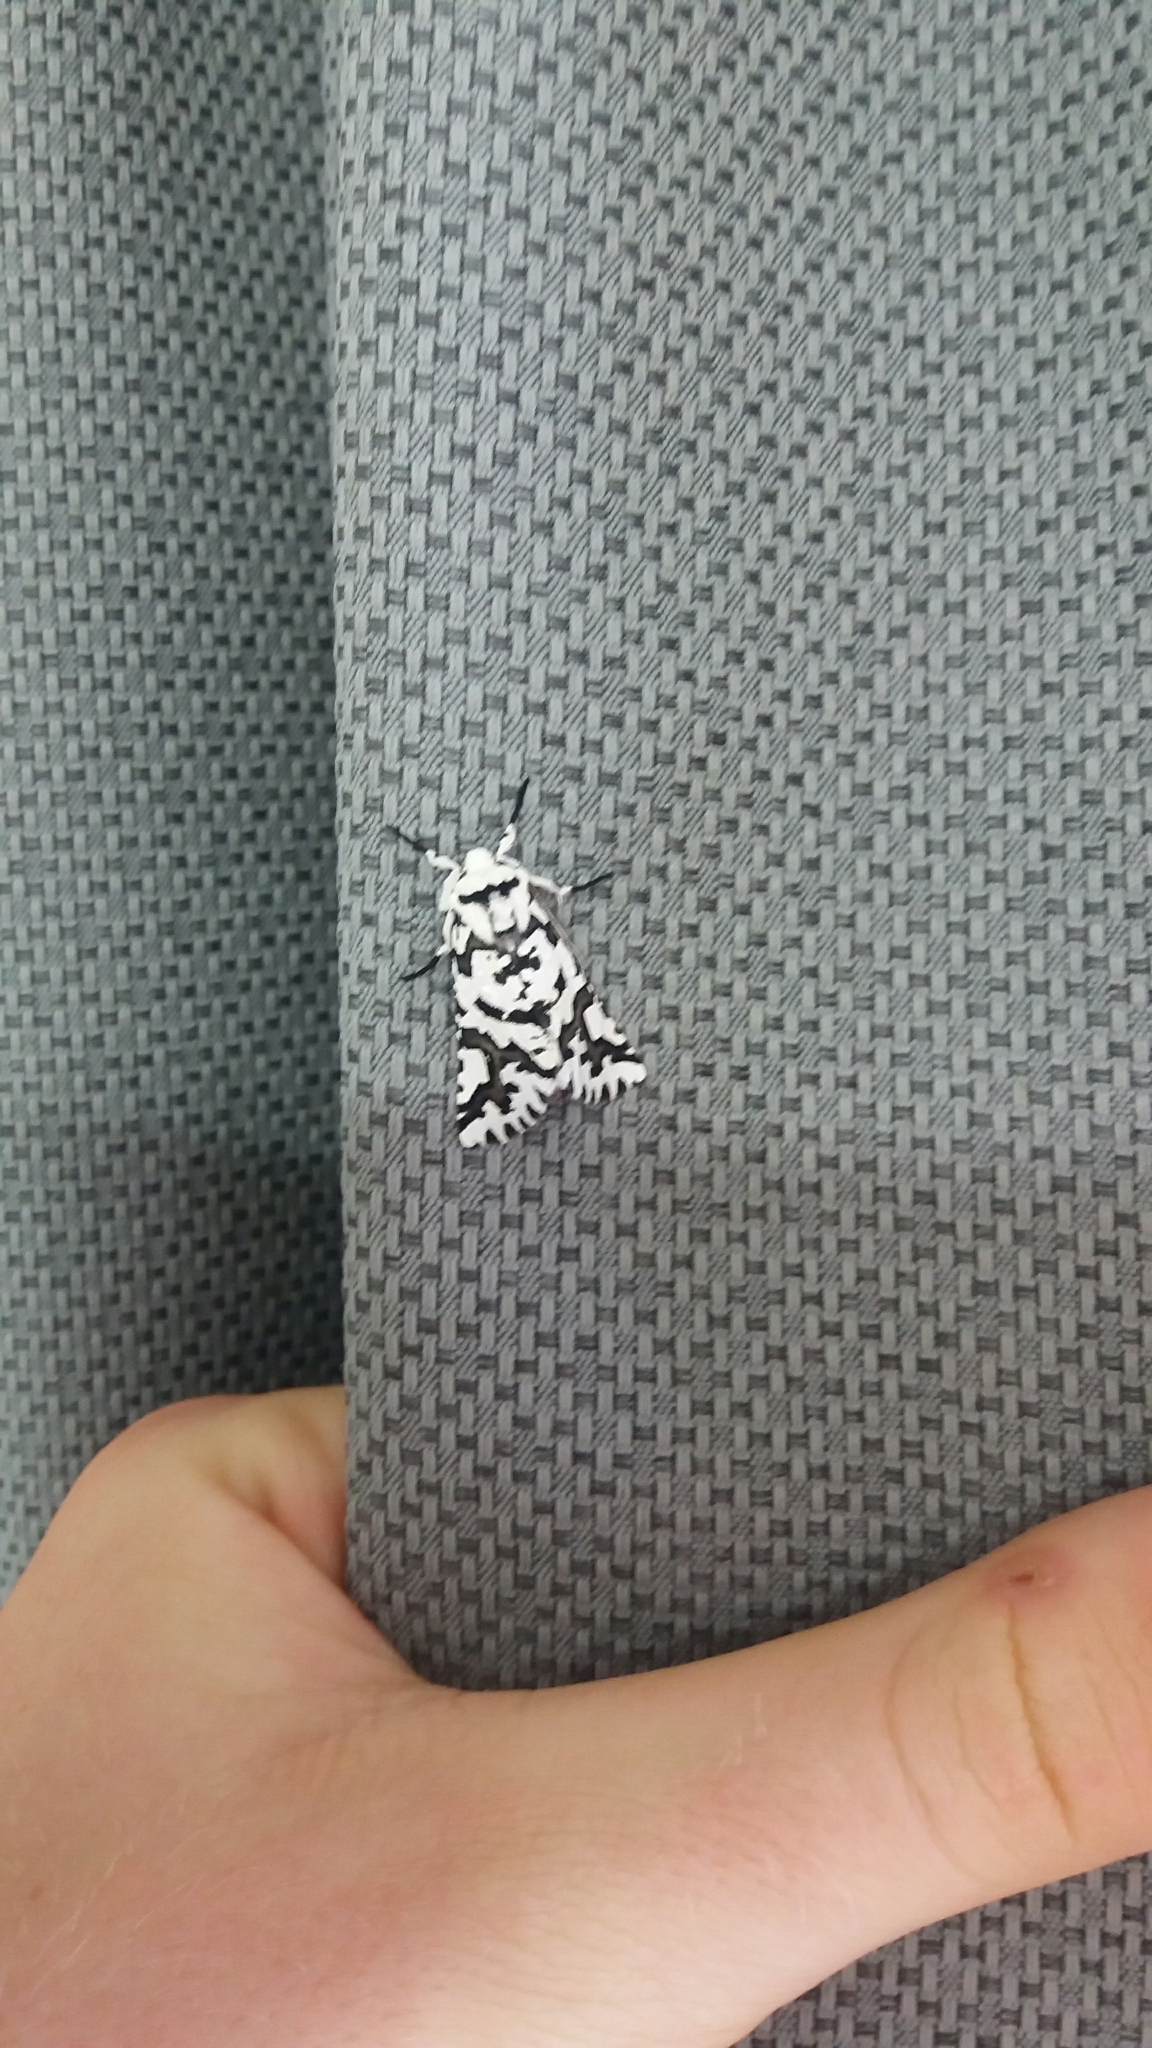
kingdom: Animalia
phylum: Arthropoda
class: Insecta
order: Lepidoptera
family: Geometridae
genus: Declana
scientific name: Declana
